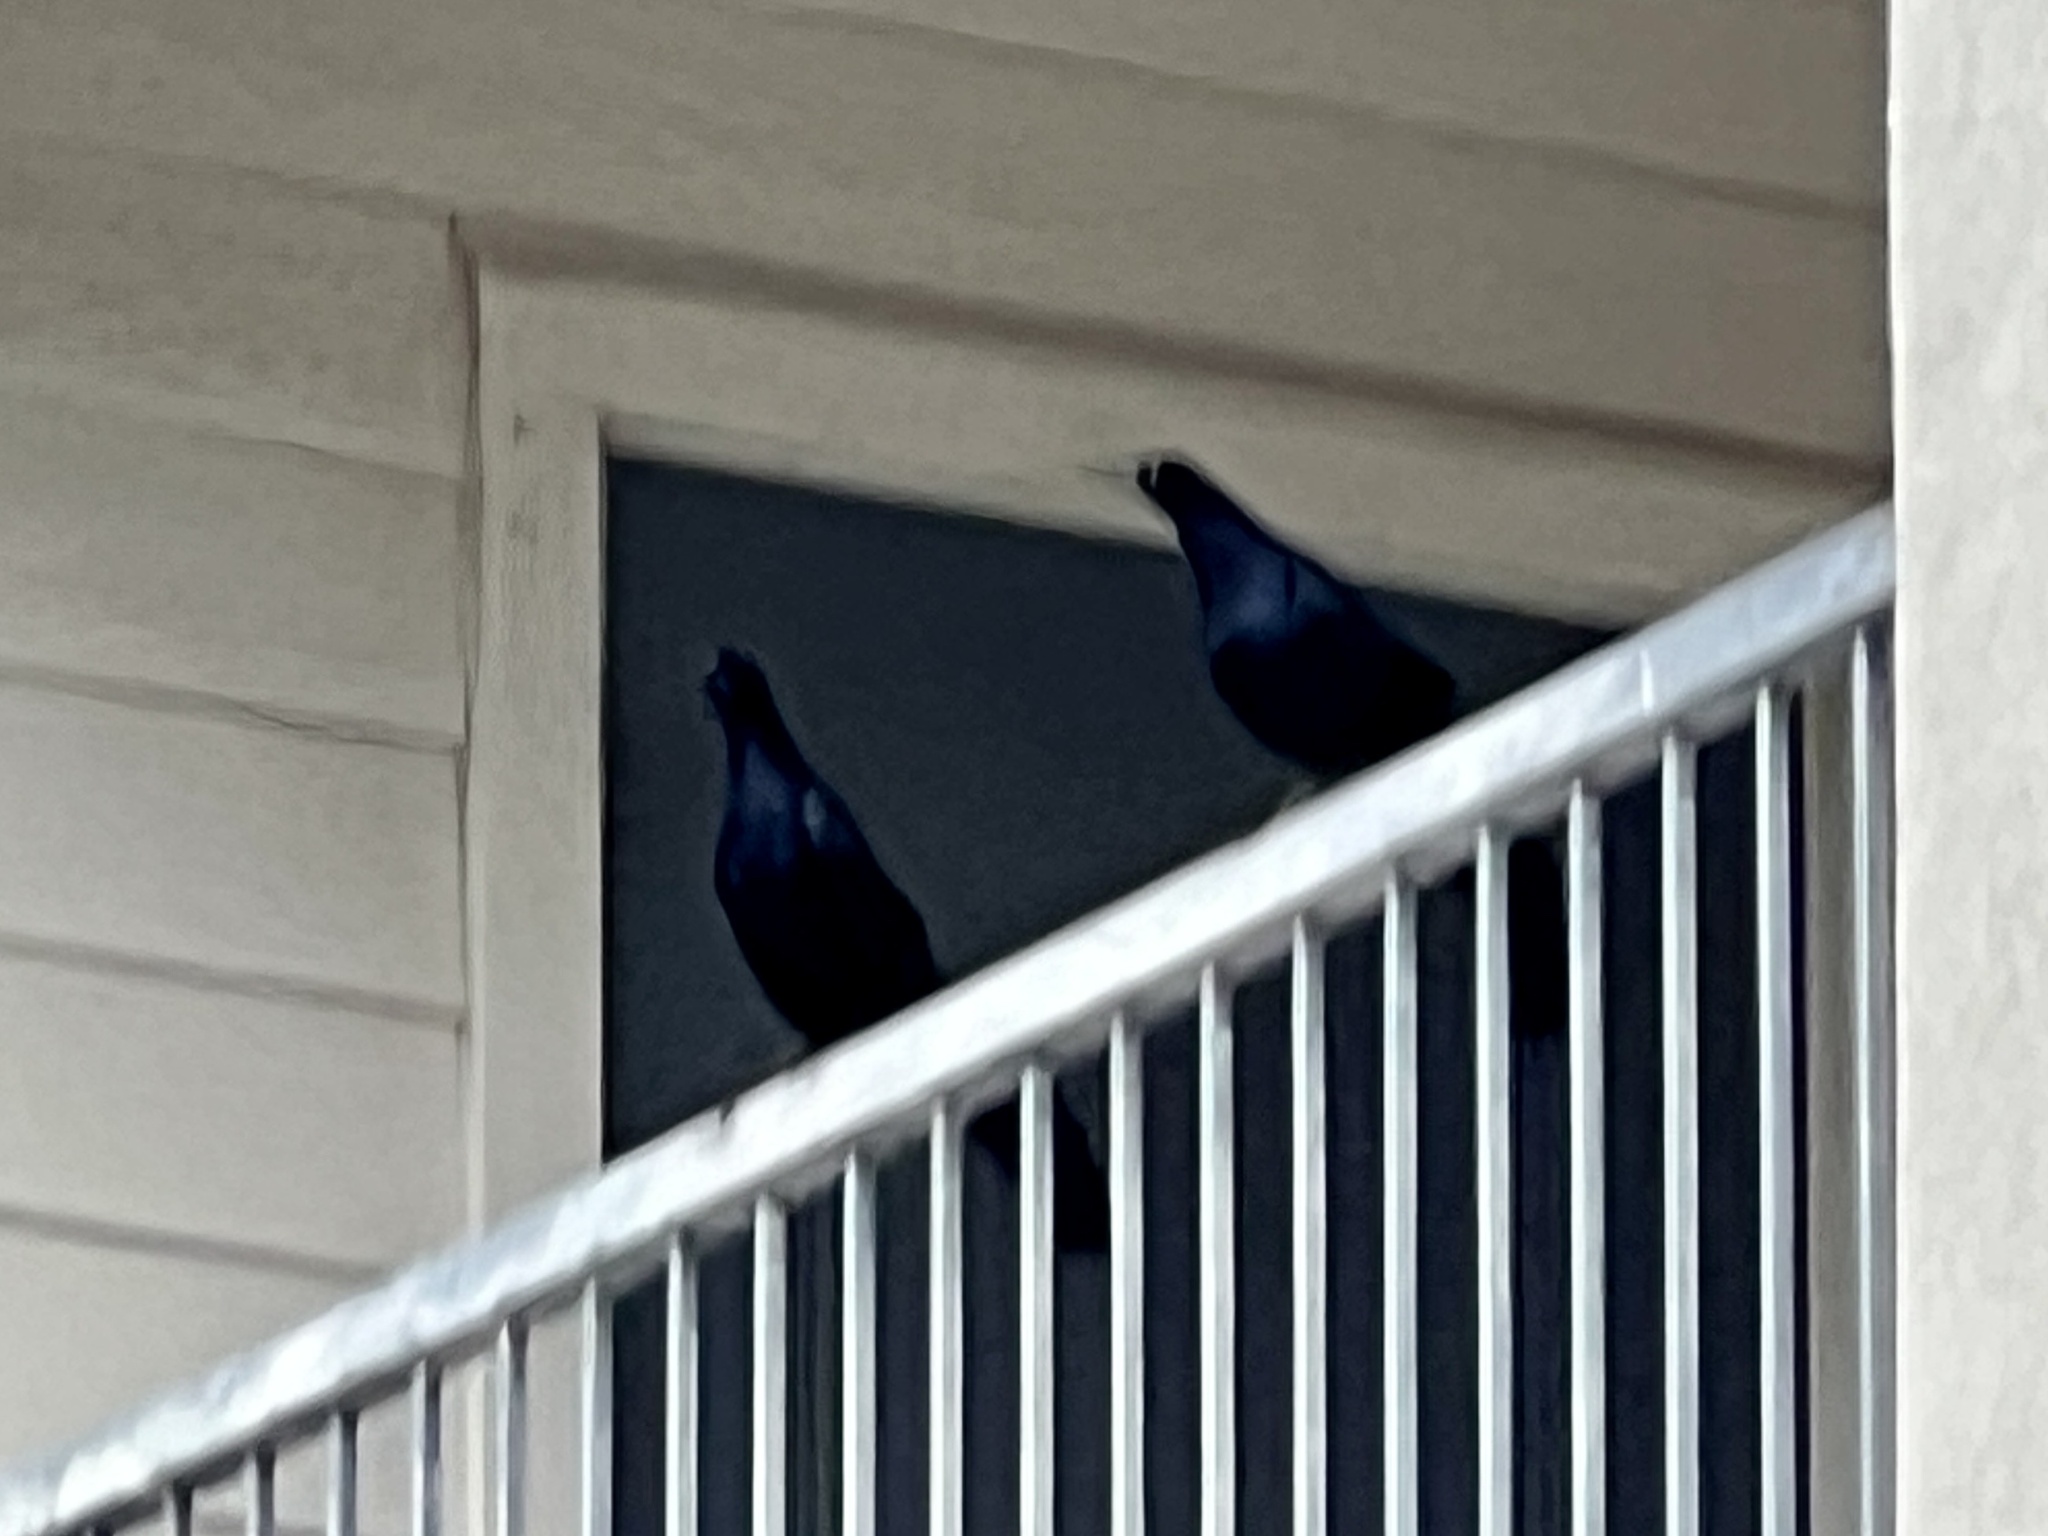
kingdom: Animalia
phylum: Chordata
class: Aves
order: Passeriformes
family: Icteridae
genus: Quiscalus
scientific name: Quiscalus mexicanus
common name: Great-tailed grackle
